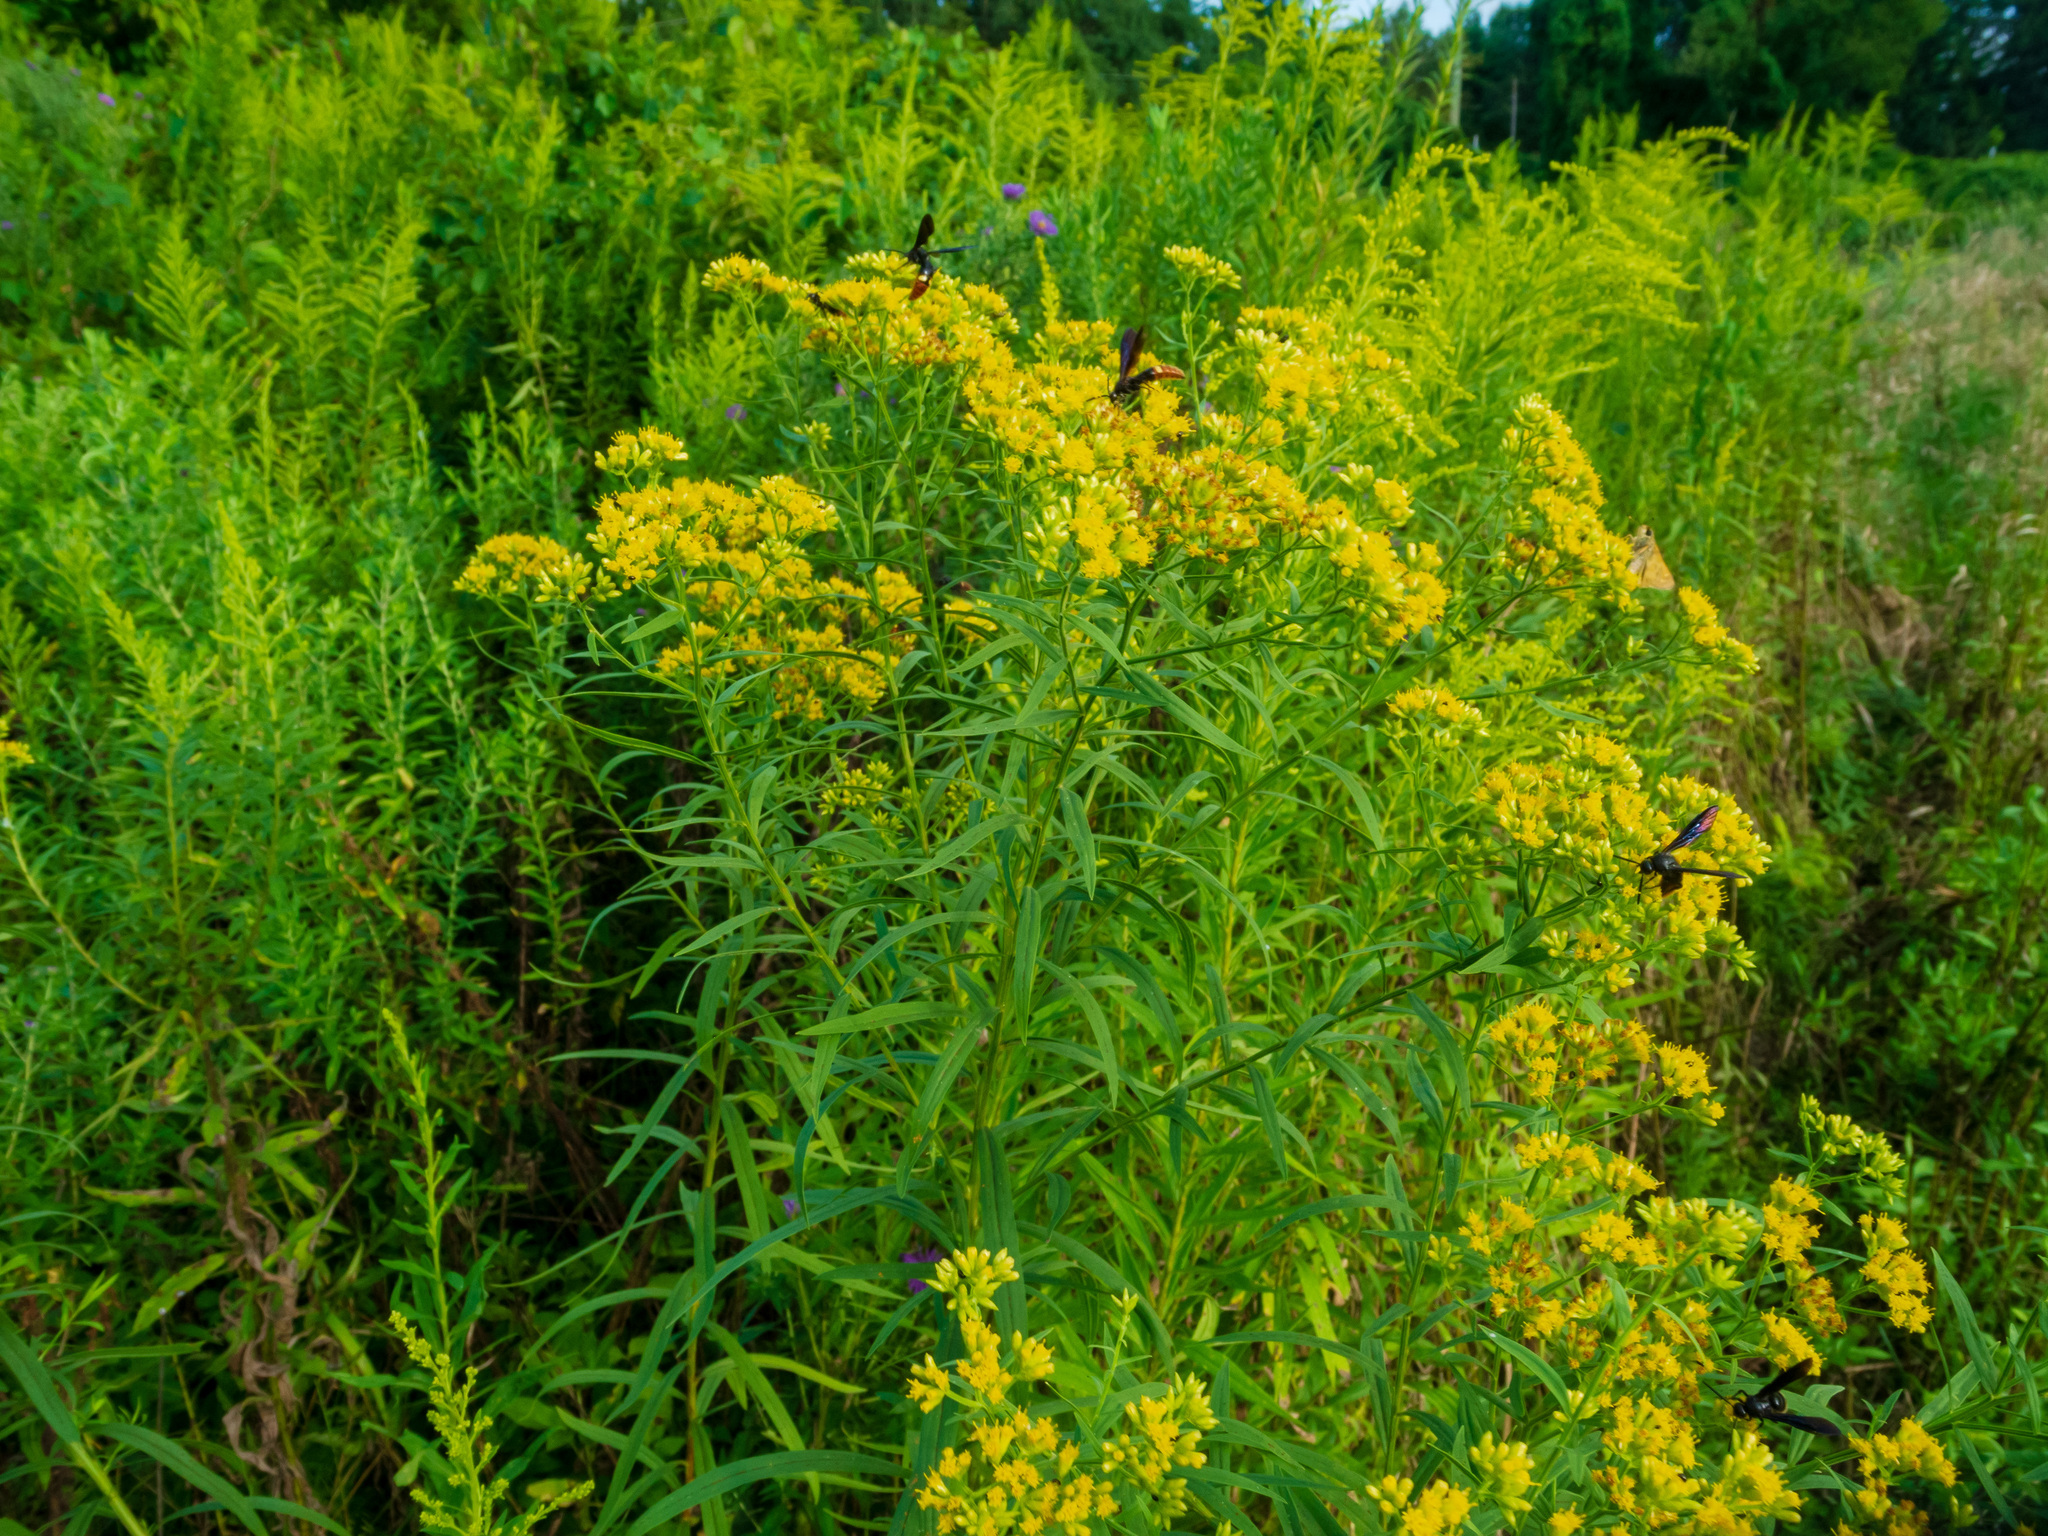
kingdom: Animalia
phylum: Arthropoda
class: Insecta
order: Hymenoptera
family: Scoliidae
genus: Scolia
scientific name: Scolia dubia
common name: Blue-winged scoliid wasp
